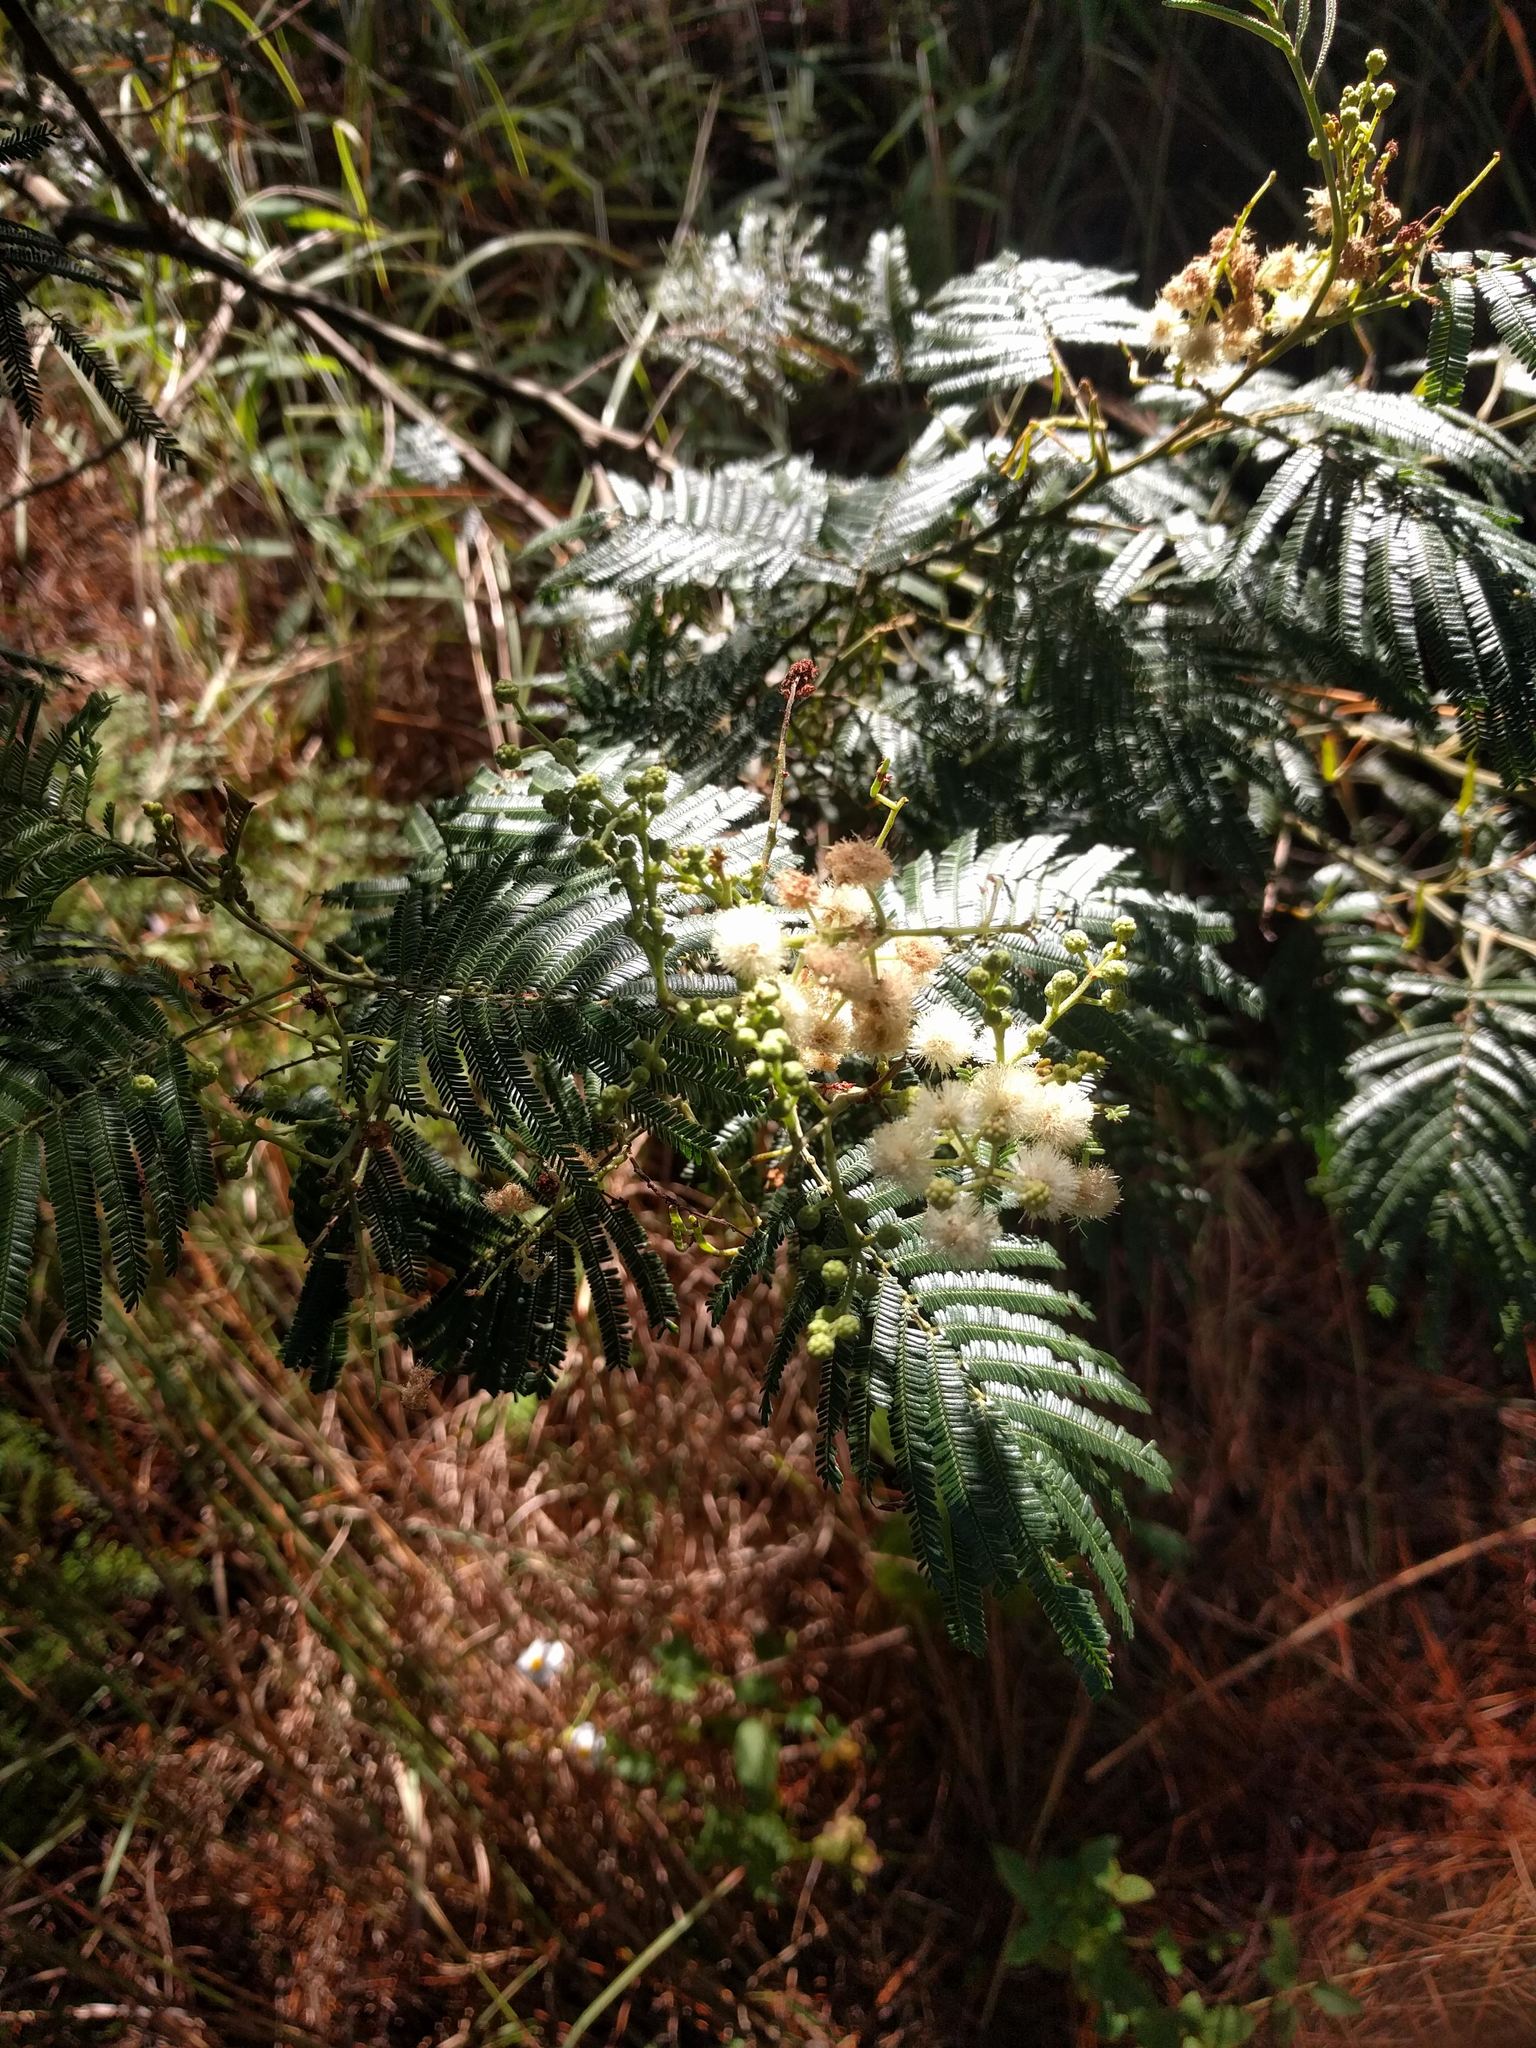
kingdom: Plantae
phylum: Tracheophyta
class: Magnoliopsida
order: Fabales
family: Fabaceae
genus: Acacia
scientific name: Acacia mearnsii
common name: Black wattle
